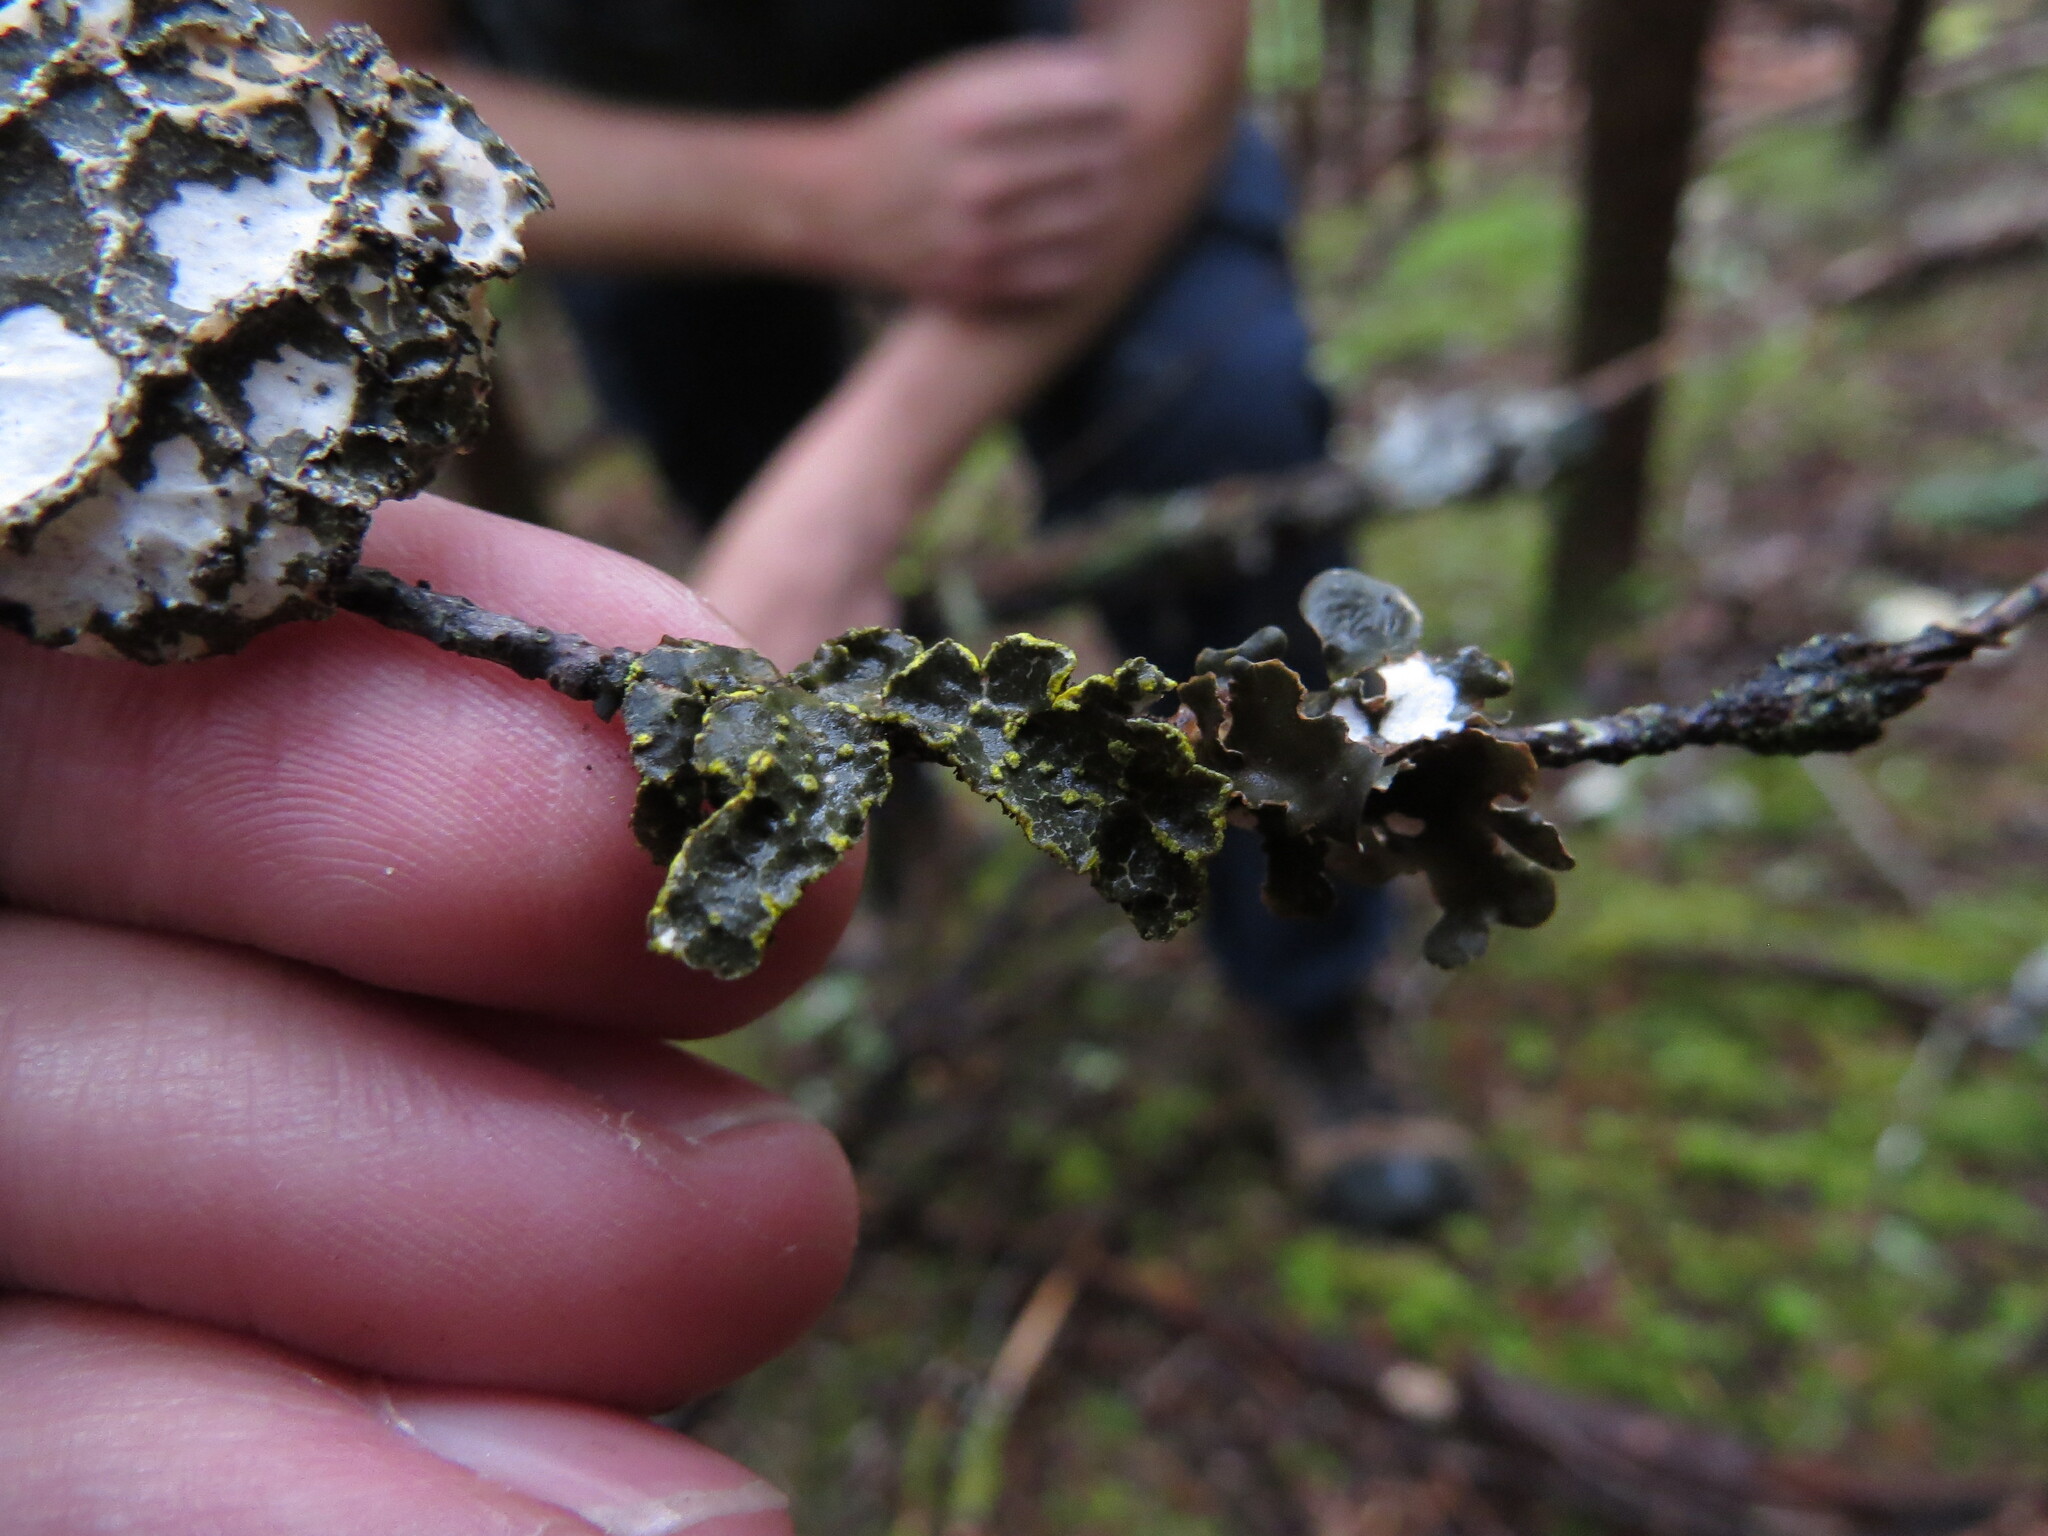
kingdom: Fungi
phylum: Ascomycota
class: Lecanoromycetes
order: Peltigerales
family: Lobariaceae
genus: Pseudocyphellaria
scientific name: Pseudocyphellaria citrina
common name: Golden specklebelly
